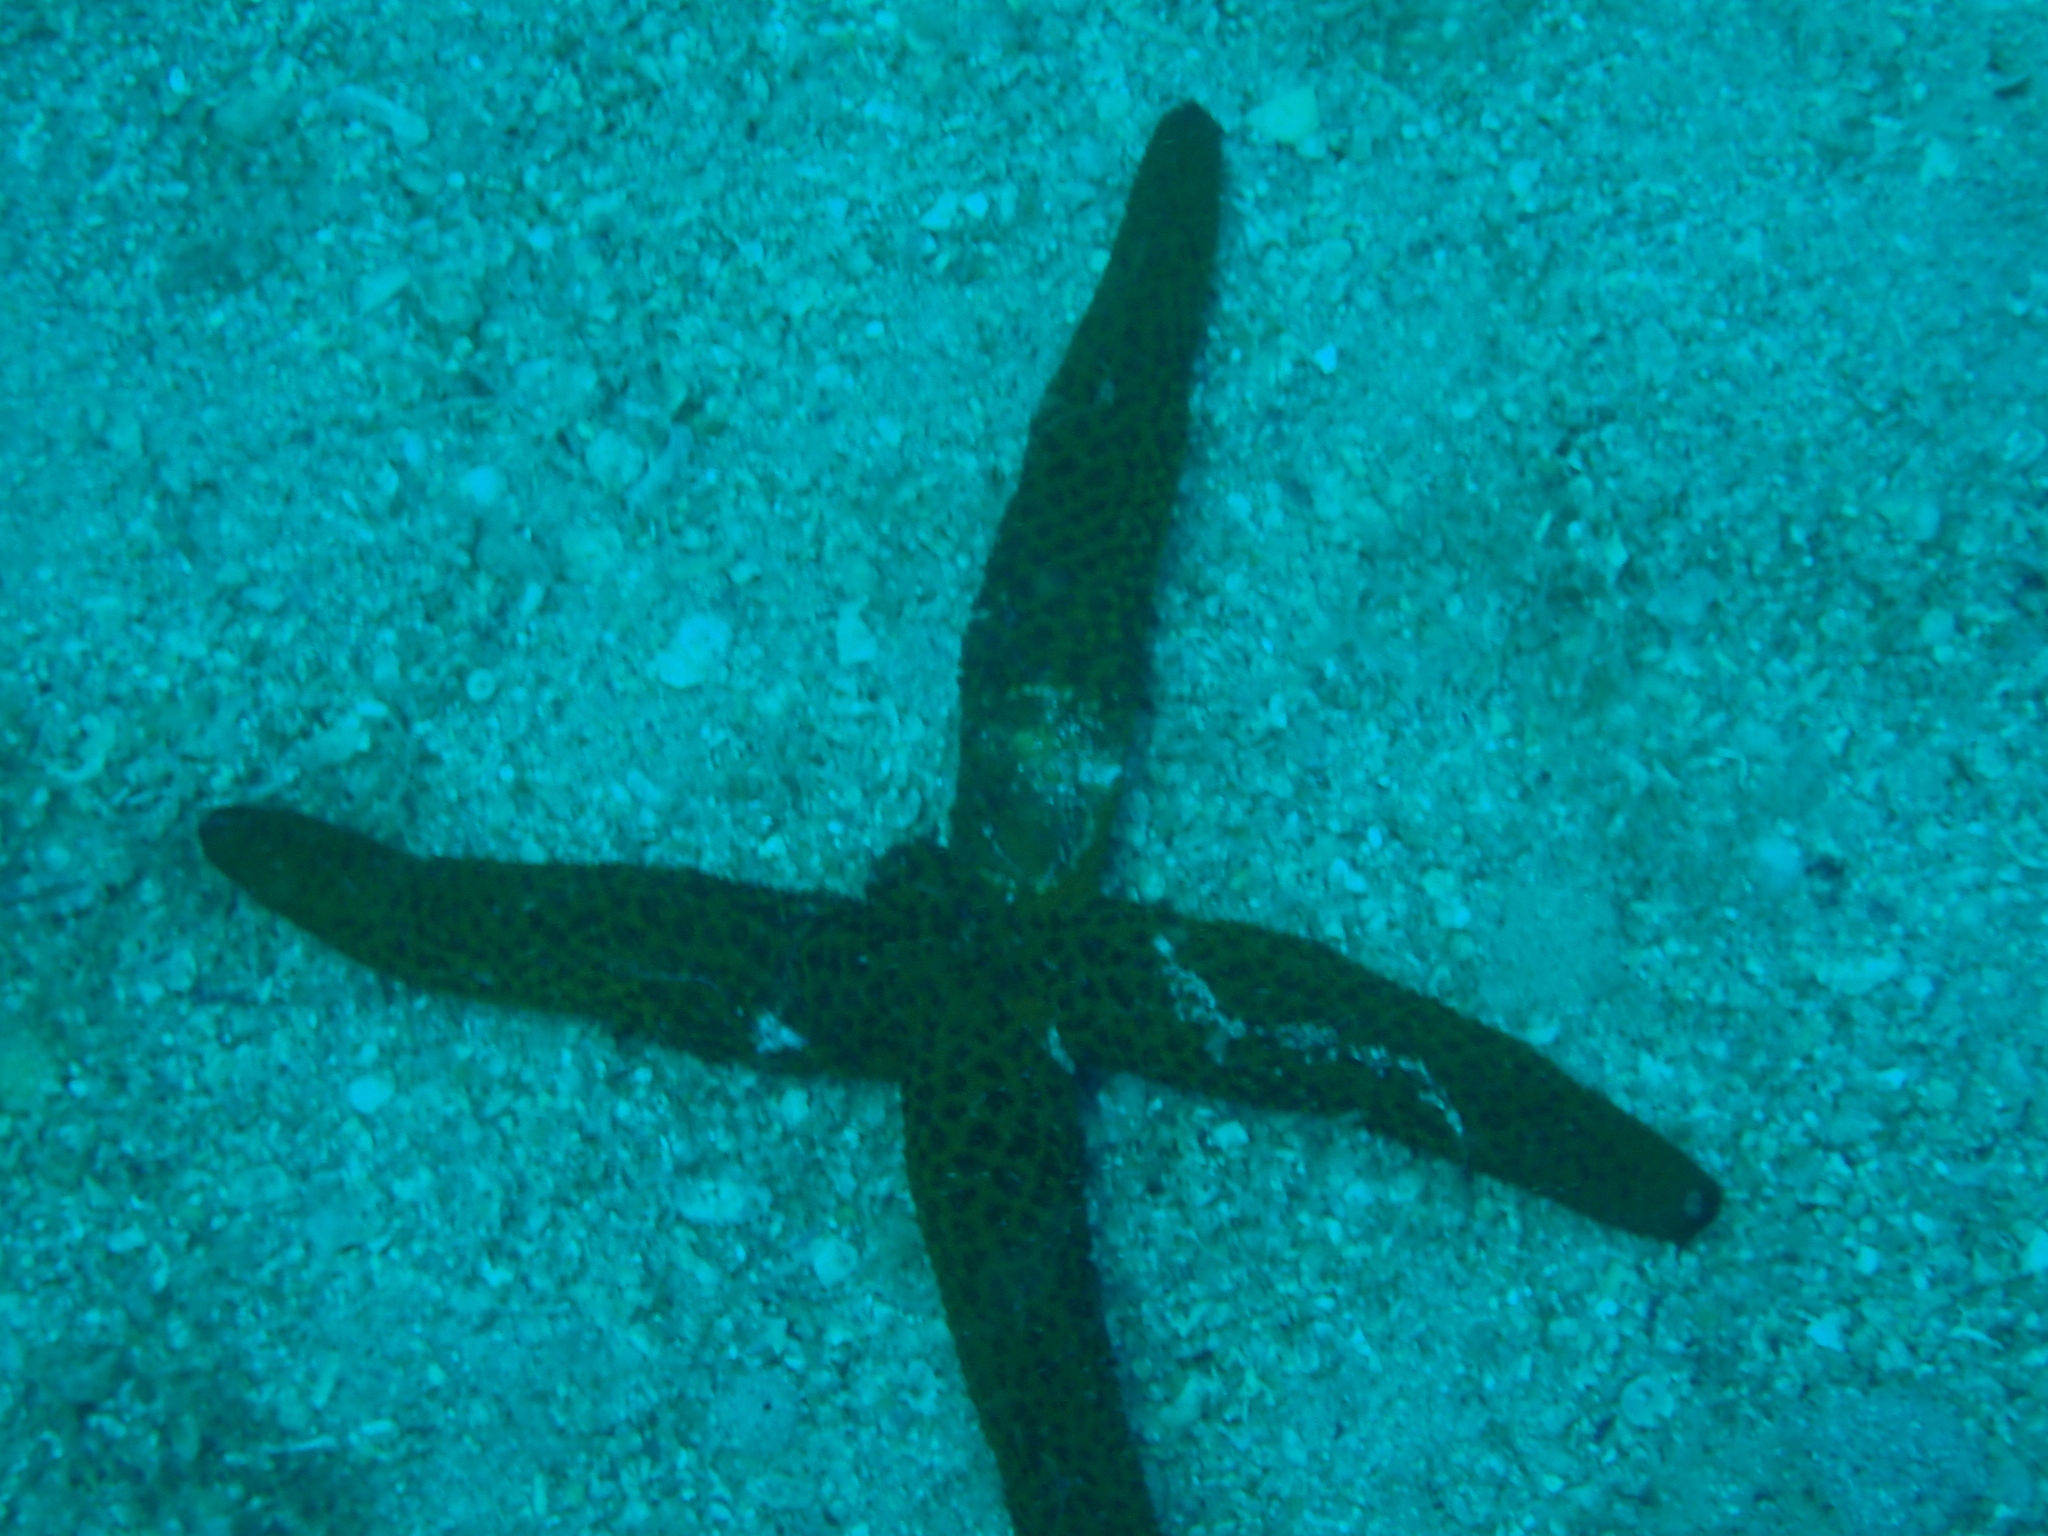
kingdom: Animalia
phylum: Echinodermata
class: Asteroidea
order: Spinulosida
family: Echinasteridae
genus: Echinaster
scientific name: Echinaster sepositus
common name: Red starfish
